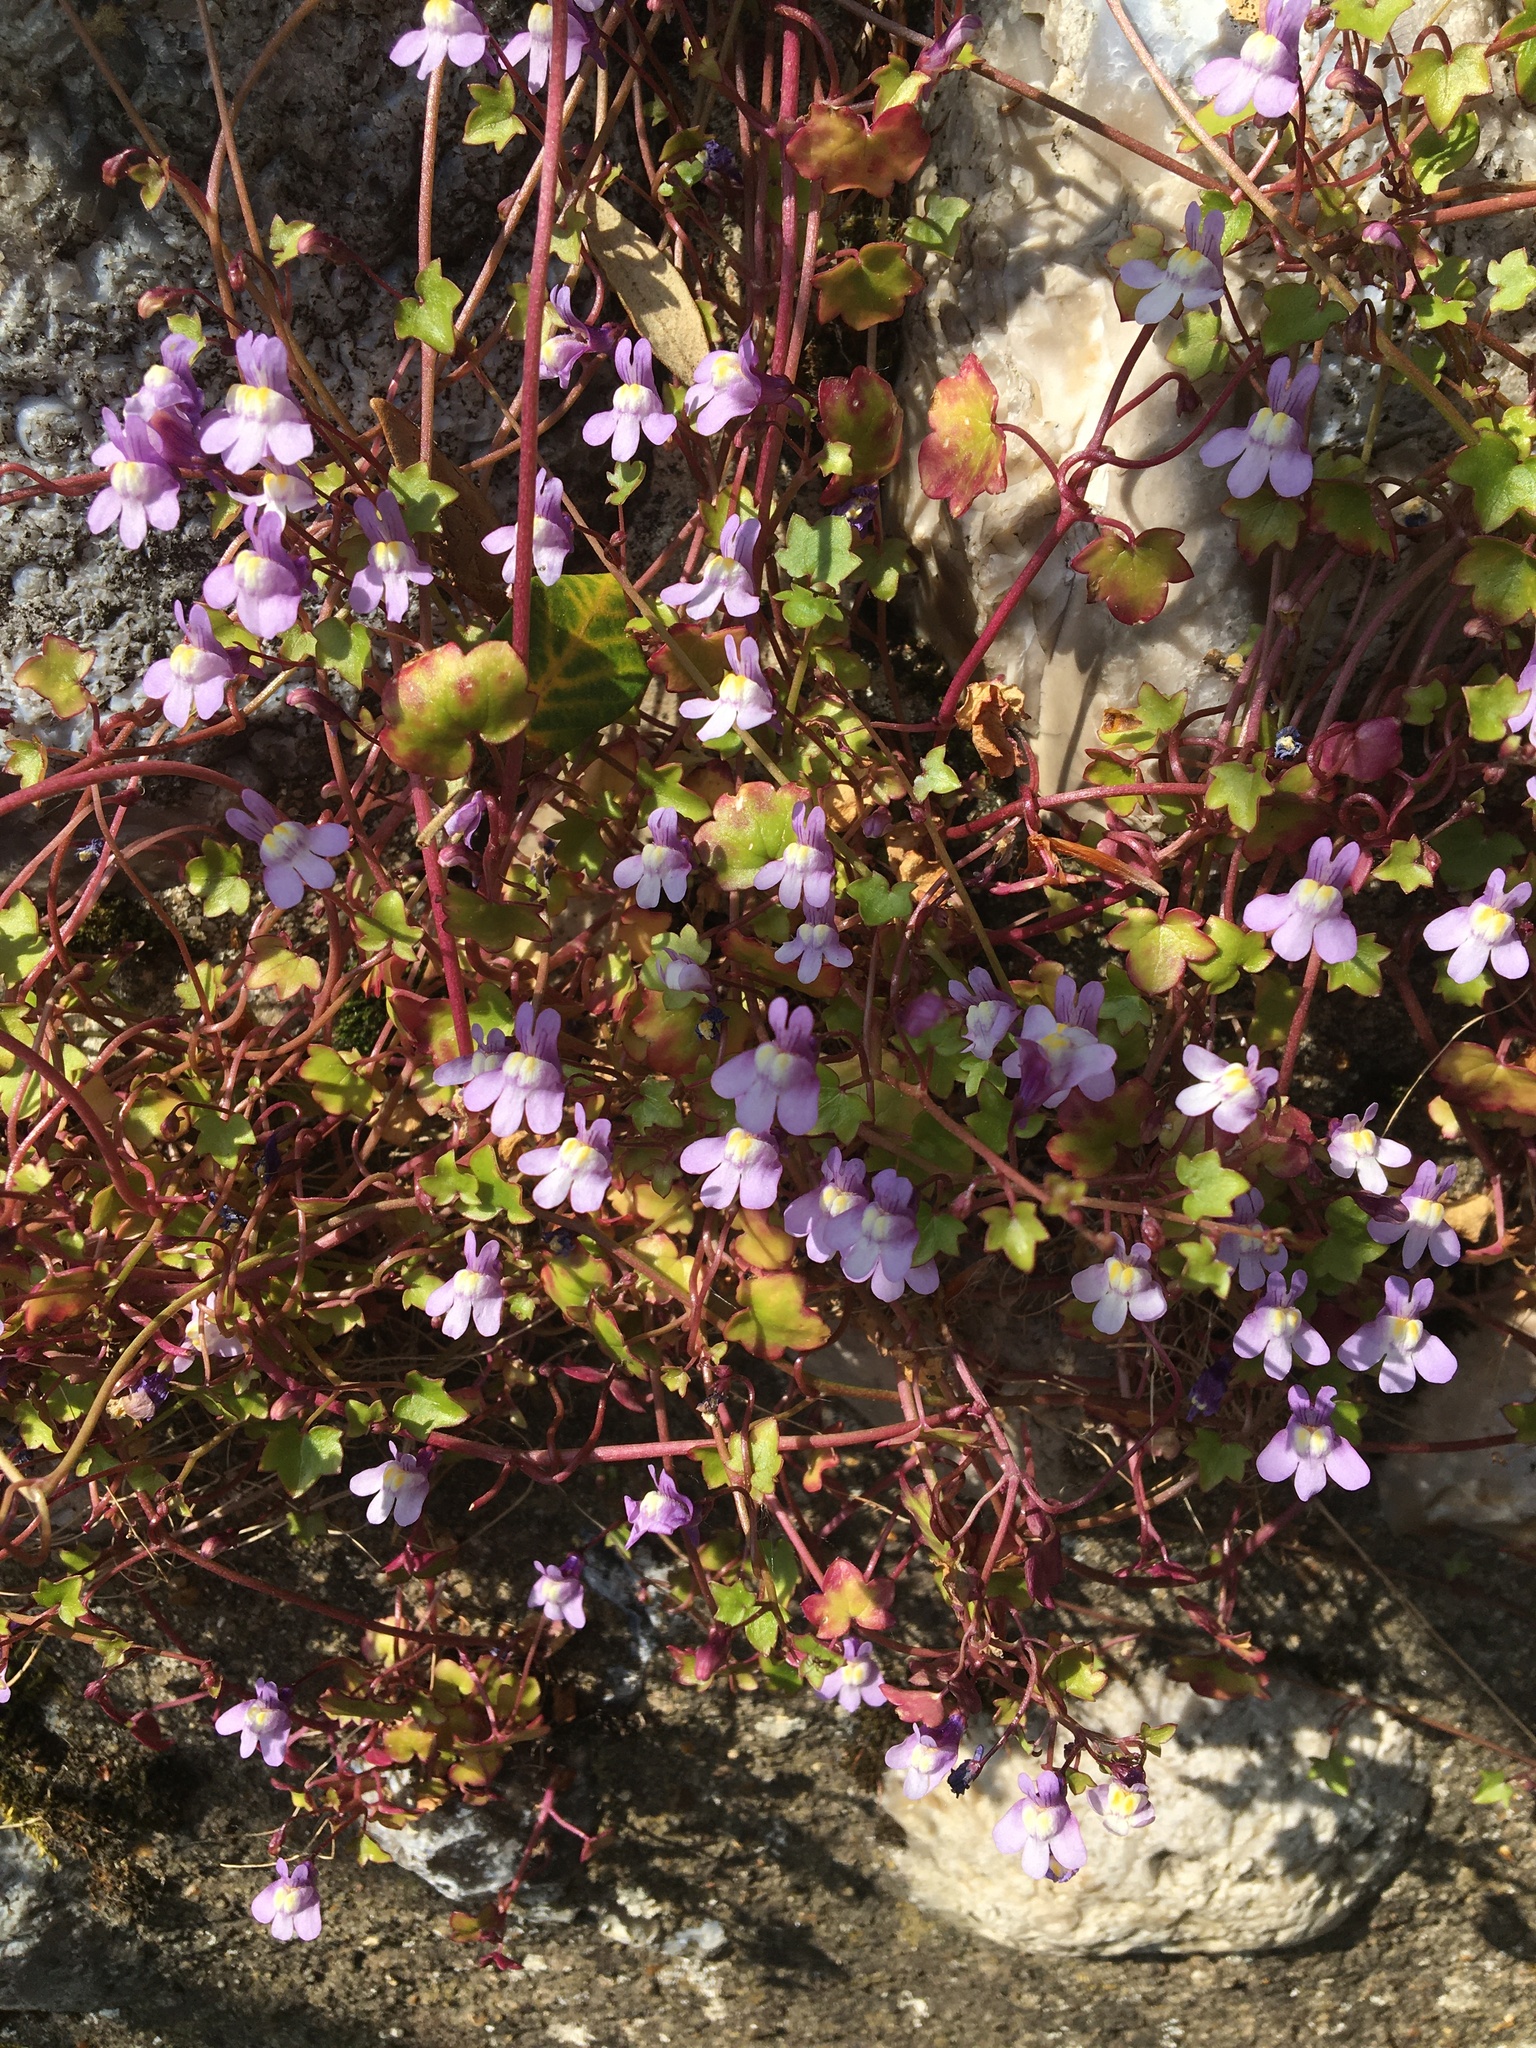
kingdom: Plantae
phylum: Tracheophyta
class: Magnoliopsida
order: Lamiales
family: Plantaginaceae
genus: Cymbalaria
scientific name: Cymbalaria muralis
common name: Ivy-leaved toadflax
